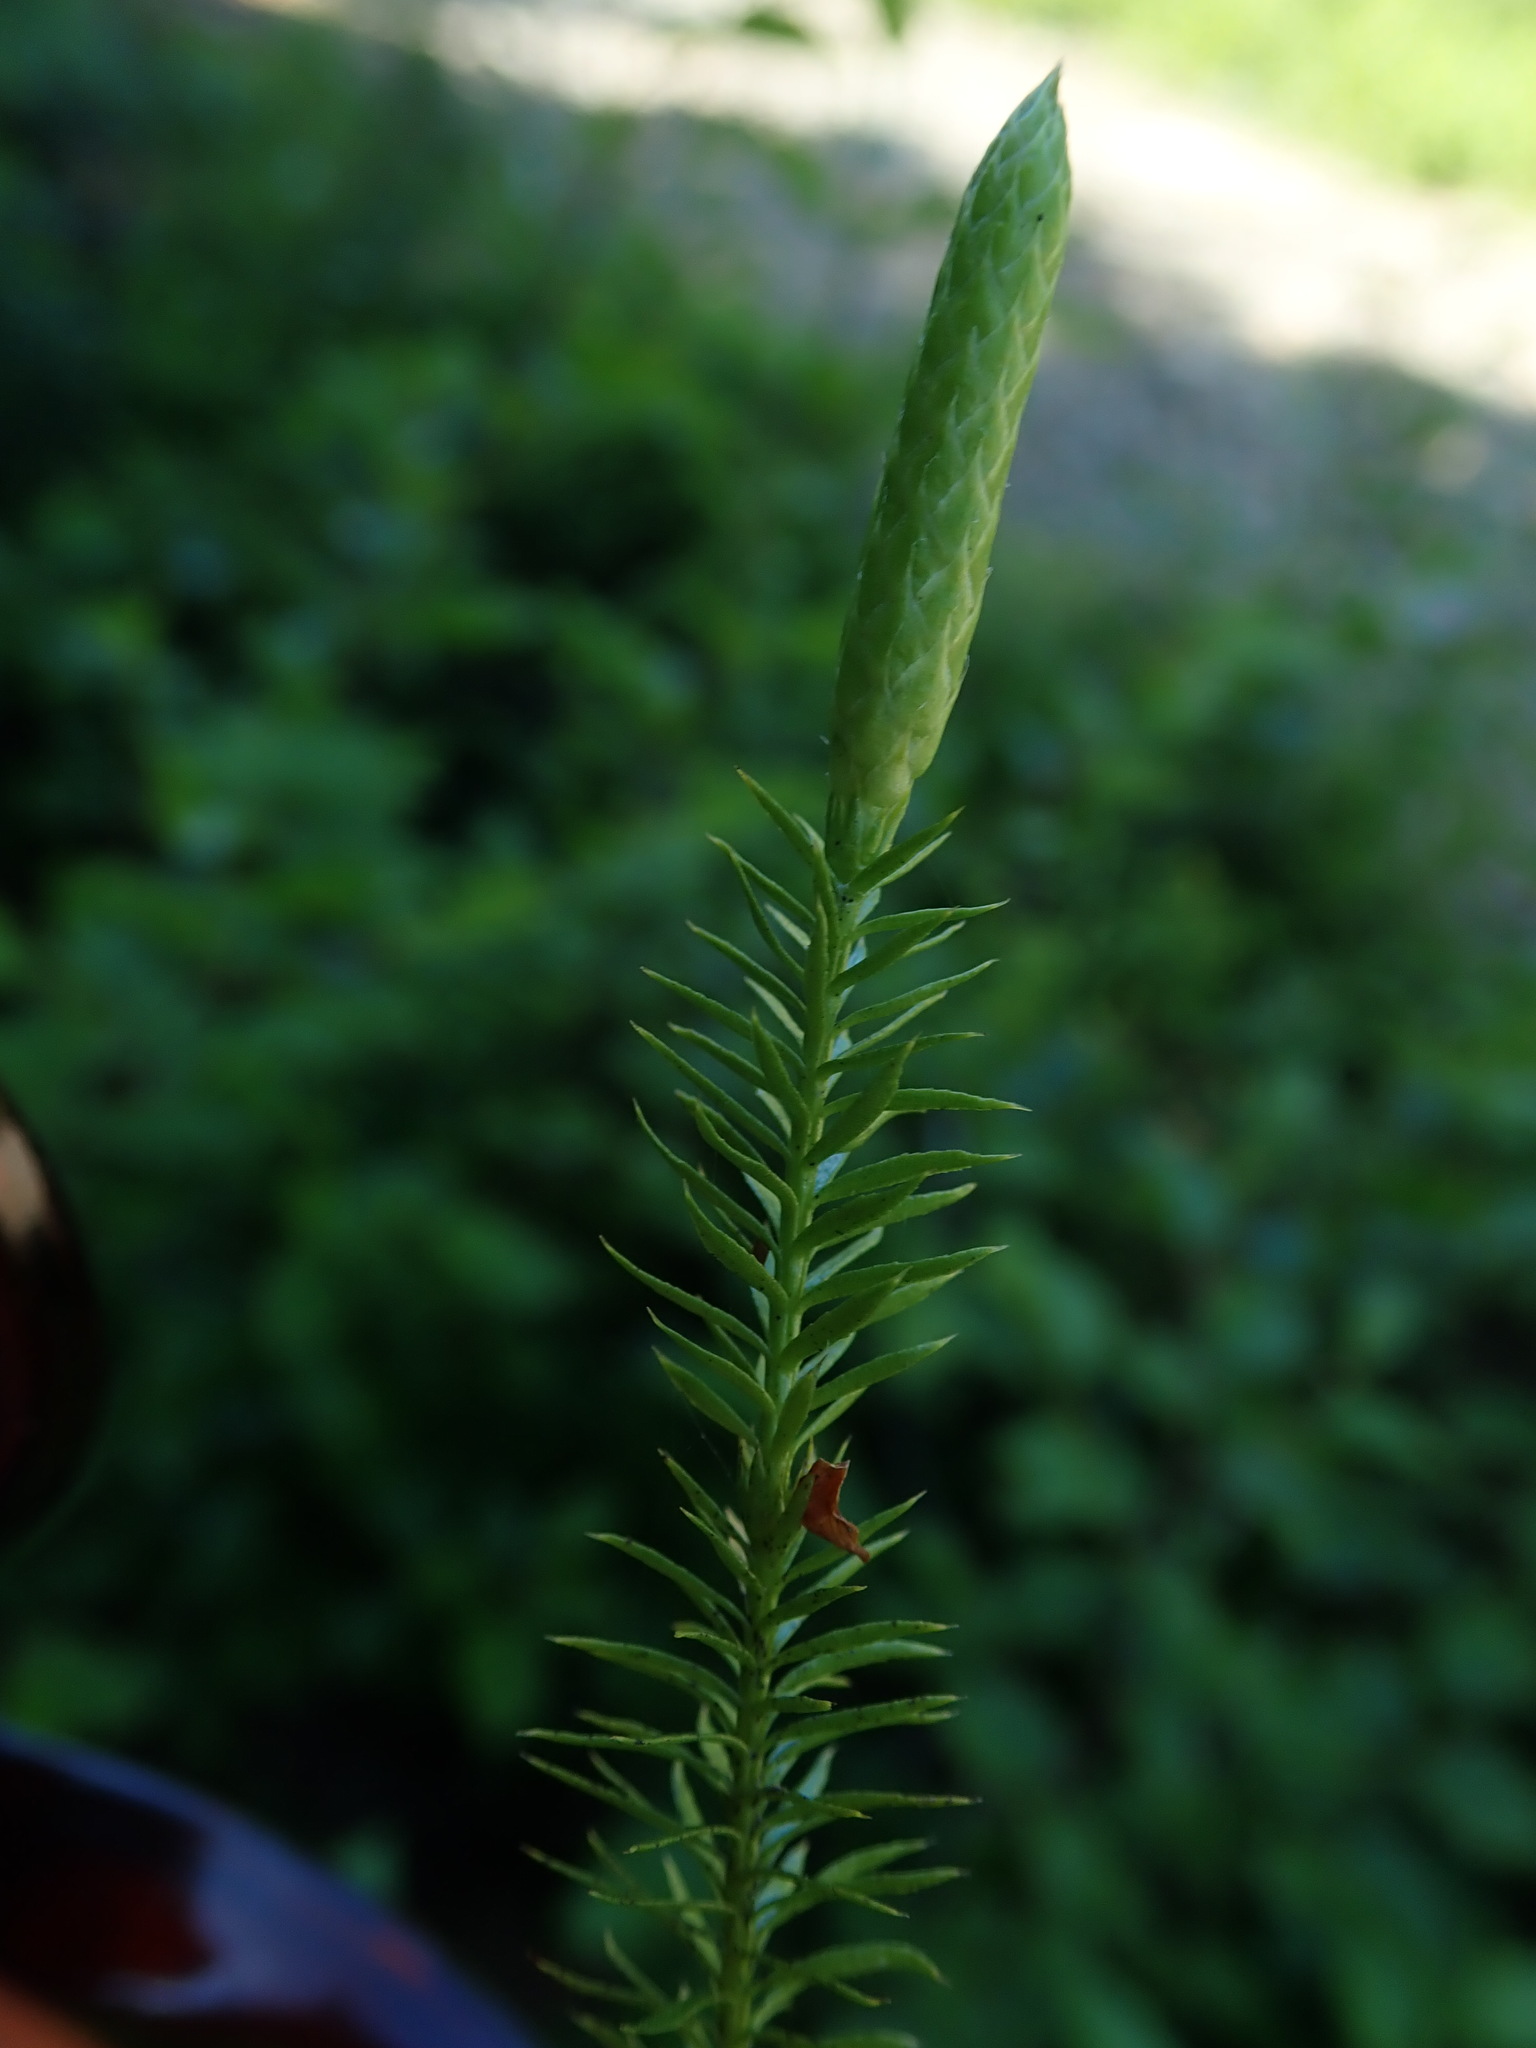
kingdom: Plantae
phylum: Tracheophyta
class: Lycopodiopsida
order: Lycopodiales
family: Lycopodiaceae
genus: Spinulum
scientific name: Spinulum annotinum
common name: Interrupted club-moss
